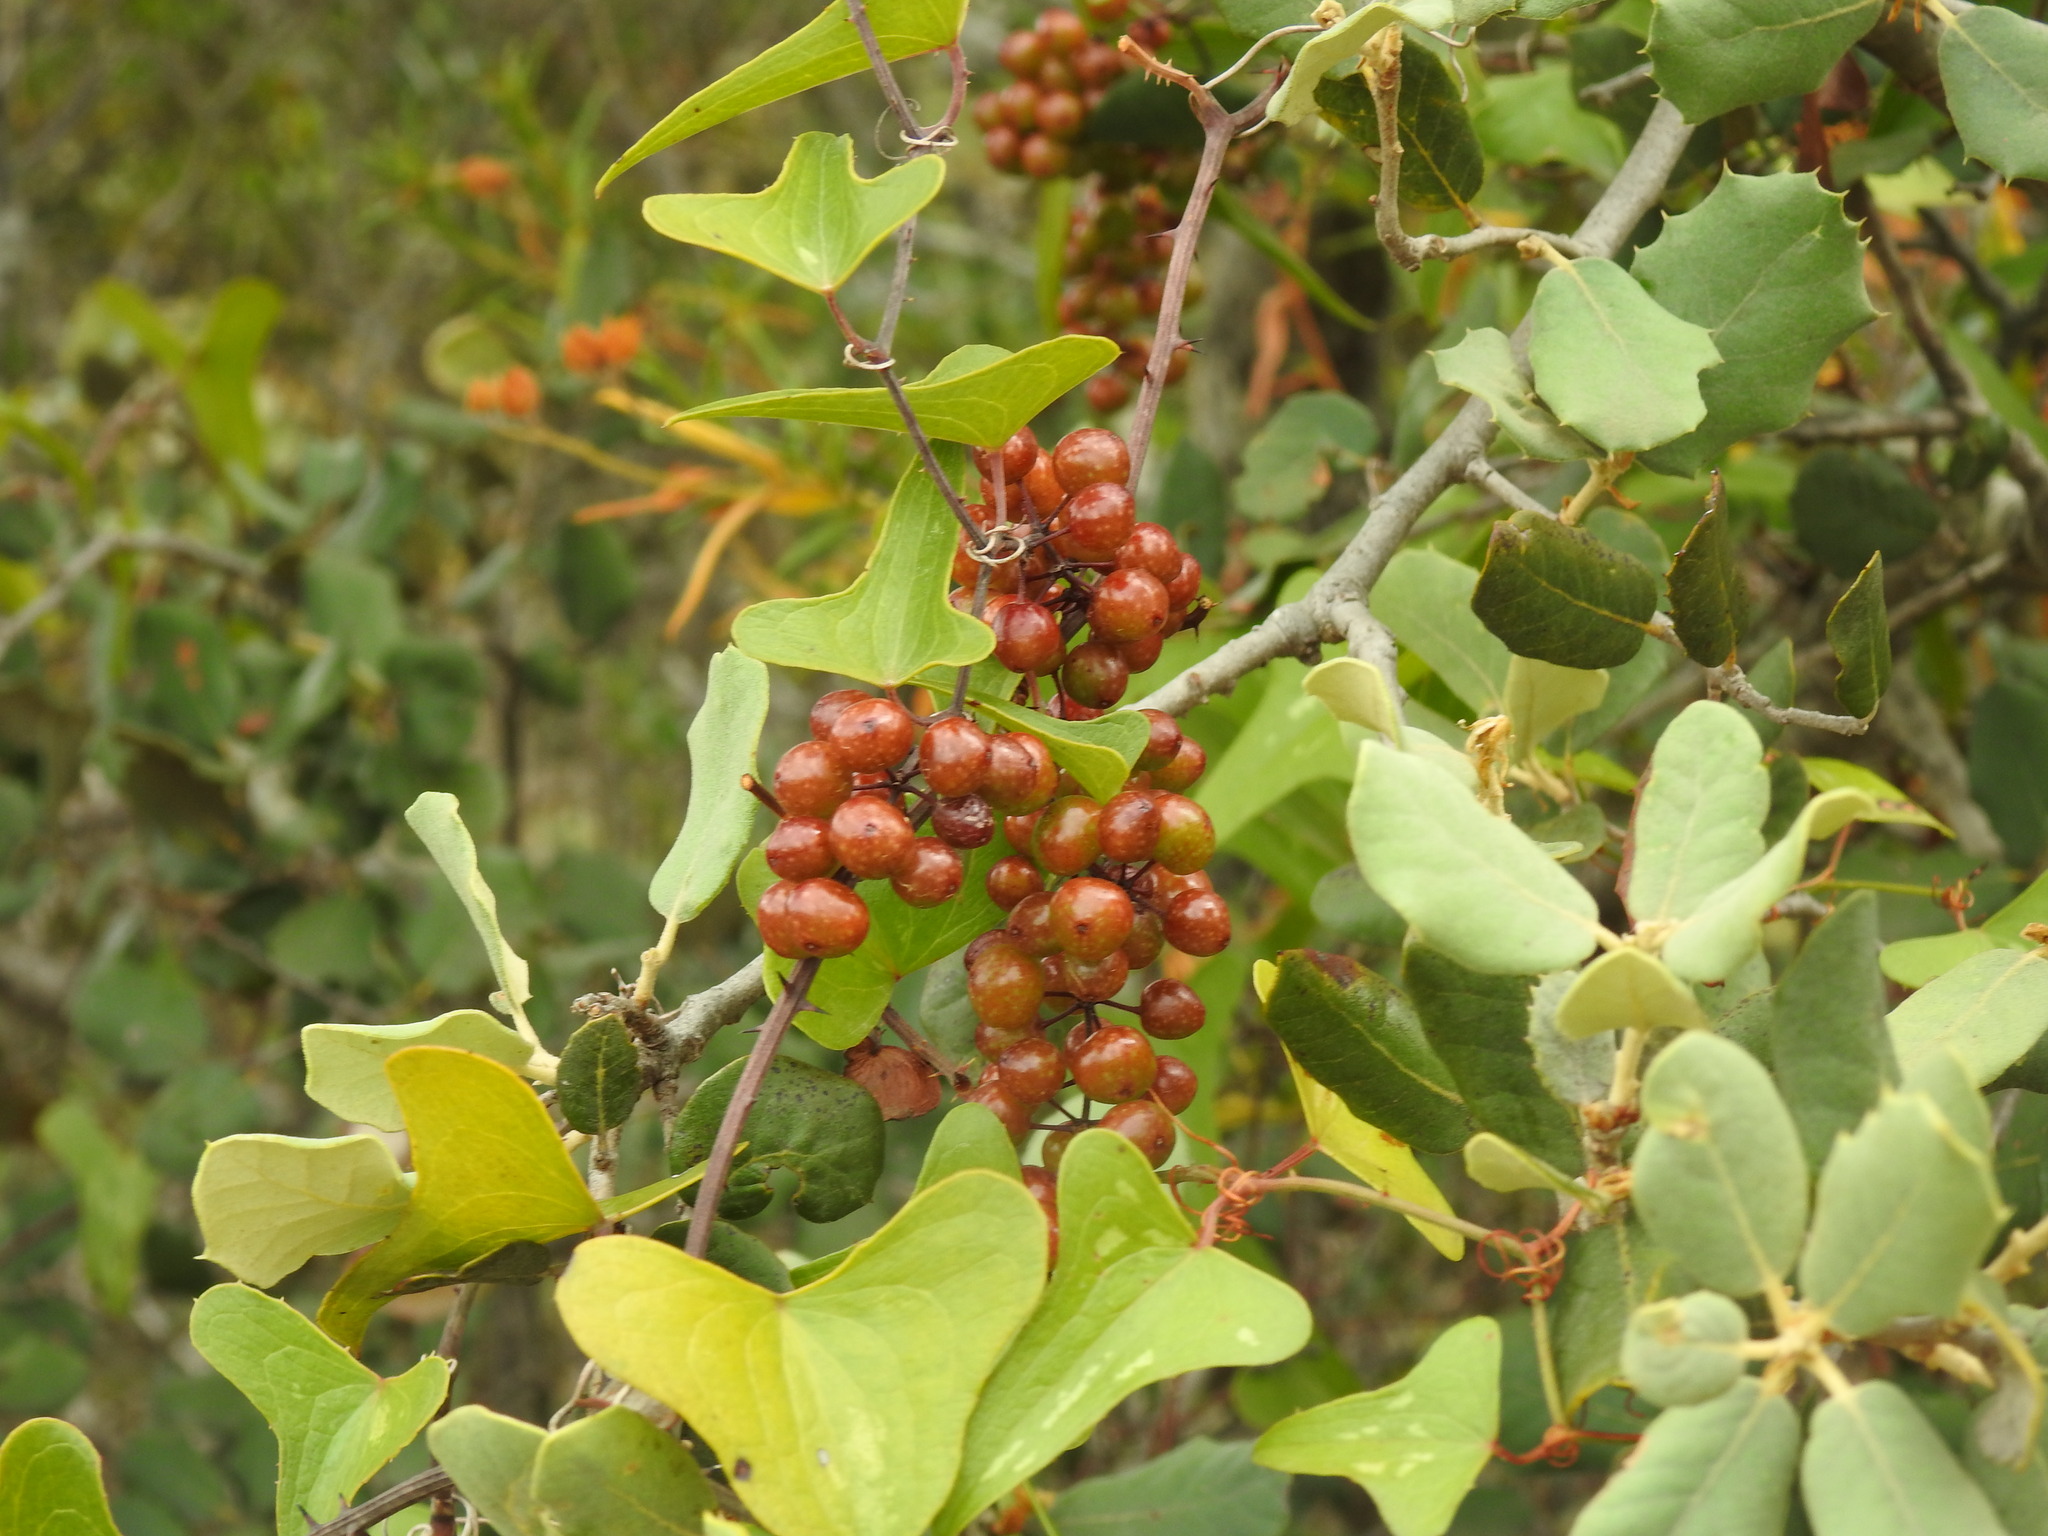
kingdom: Plantae
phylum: Tracheophyta
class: Liliopsida
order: Liliales
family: Smilacaceae
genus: Smilax
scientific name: Smilax aspera
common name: Common smilax
